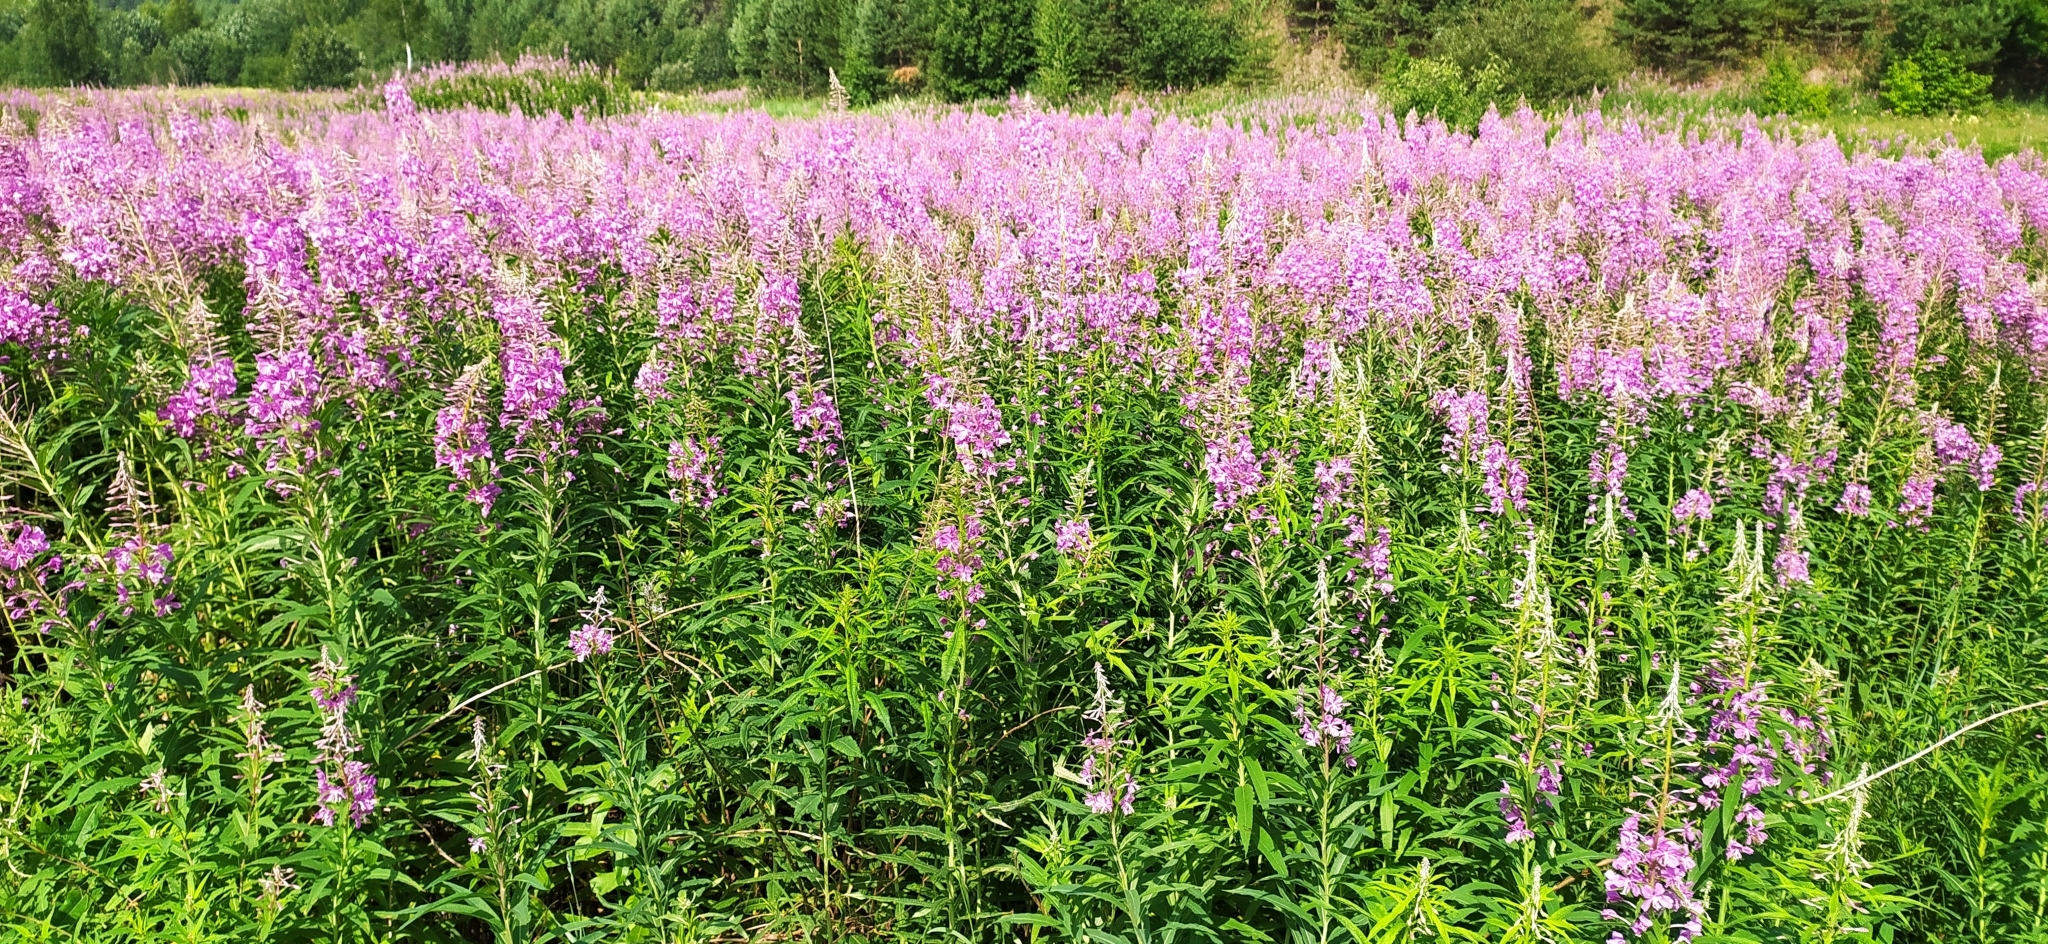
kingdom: Plantae
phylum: Tracheophyta
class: Magnoliopsida
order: Myrtales
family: Onagraceae
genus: Chamaenerion
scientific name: Chamaenerion angustifolium
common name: Fireweed
